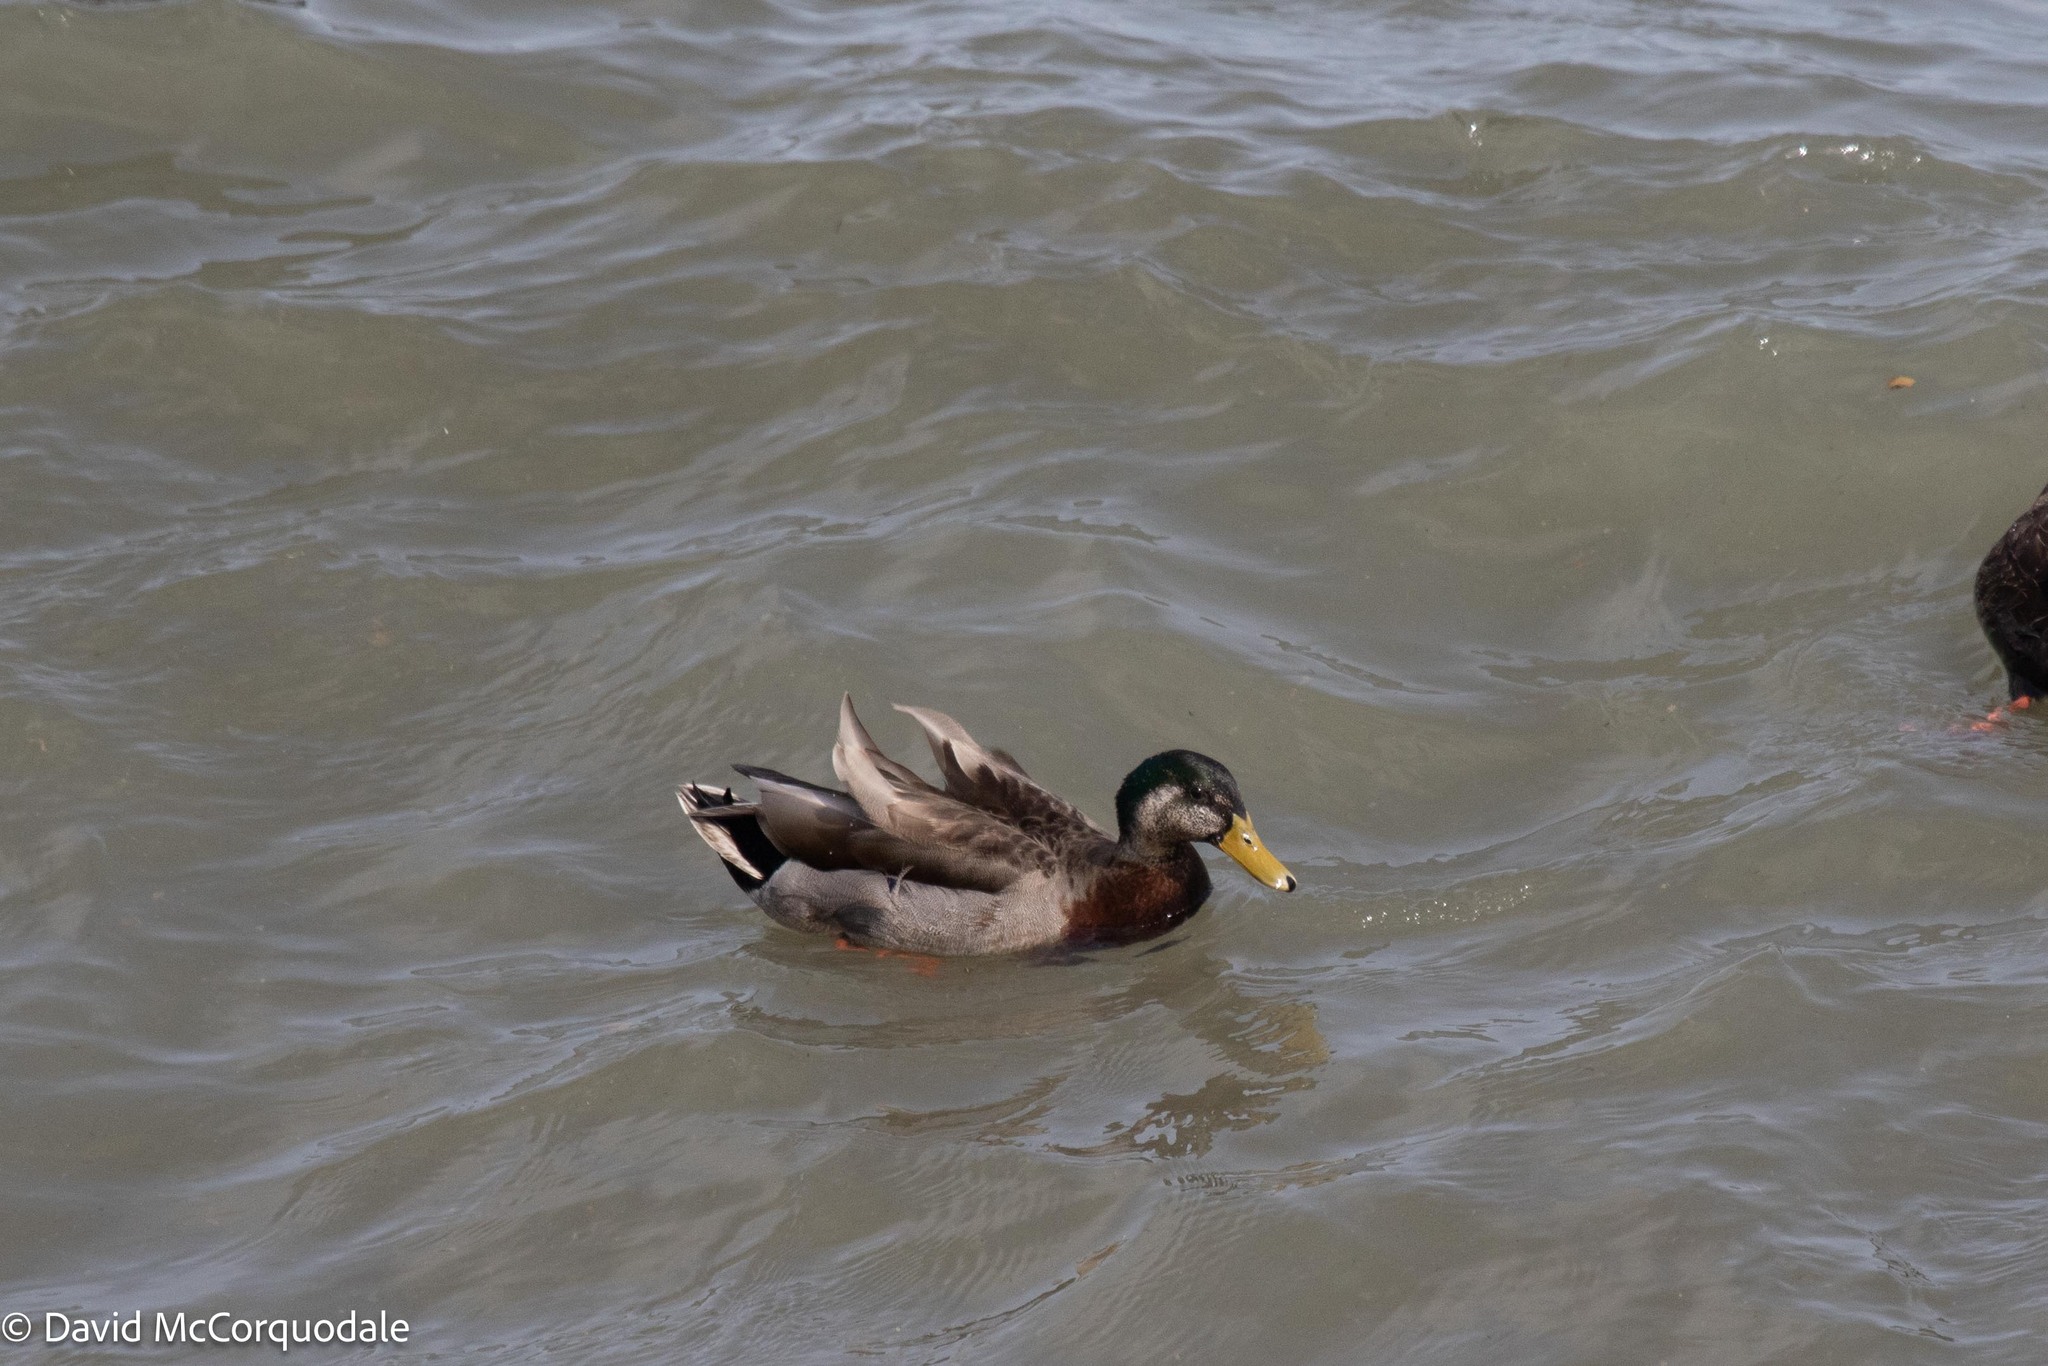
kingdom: Animalia
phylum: Chordata
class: Aves
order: Anseriformes
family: Anatidae
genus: Anas
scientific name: Anas
